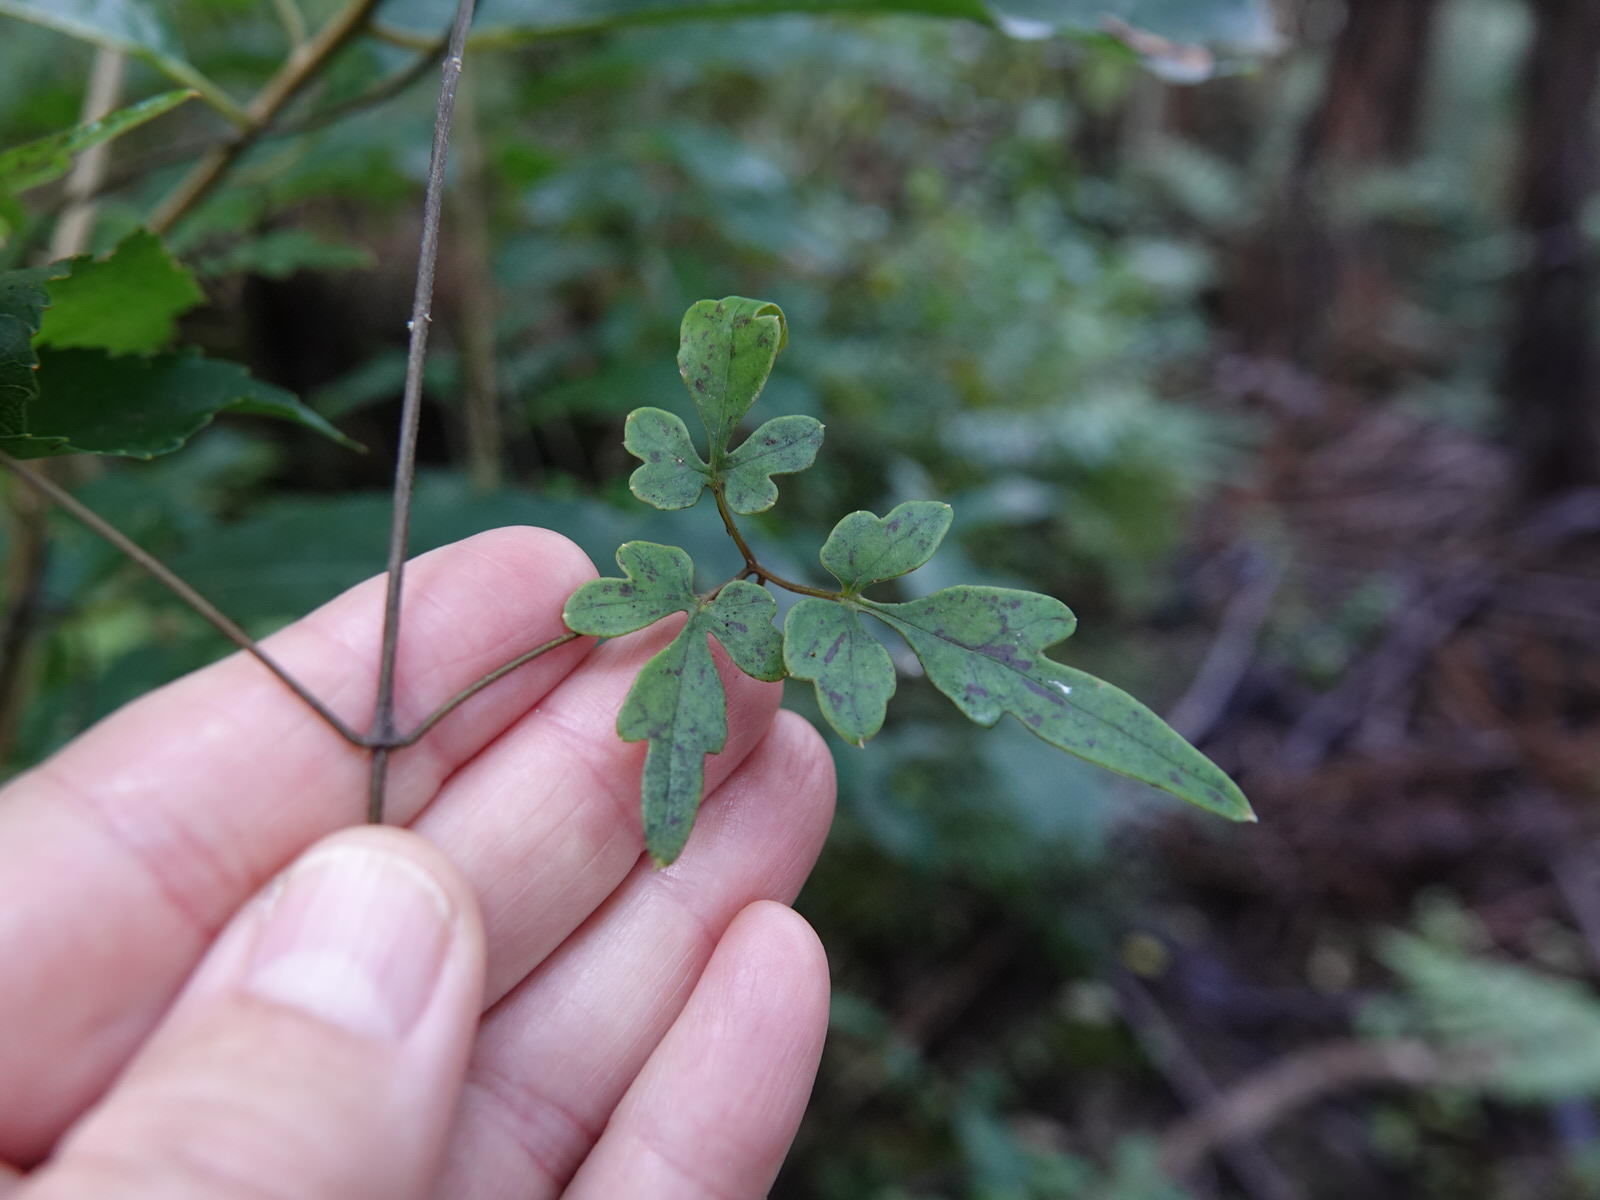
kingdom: Plantae
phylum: Tracheophyta
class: Magnoliopsida
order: Ranunculales
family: Ranunculaceae
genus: Clematis
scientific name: Clematis paniculata
